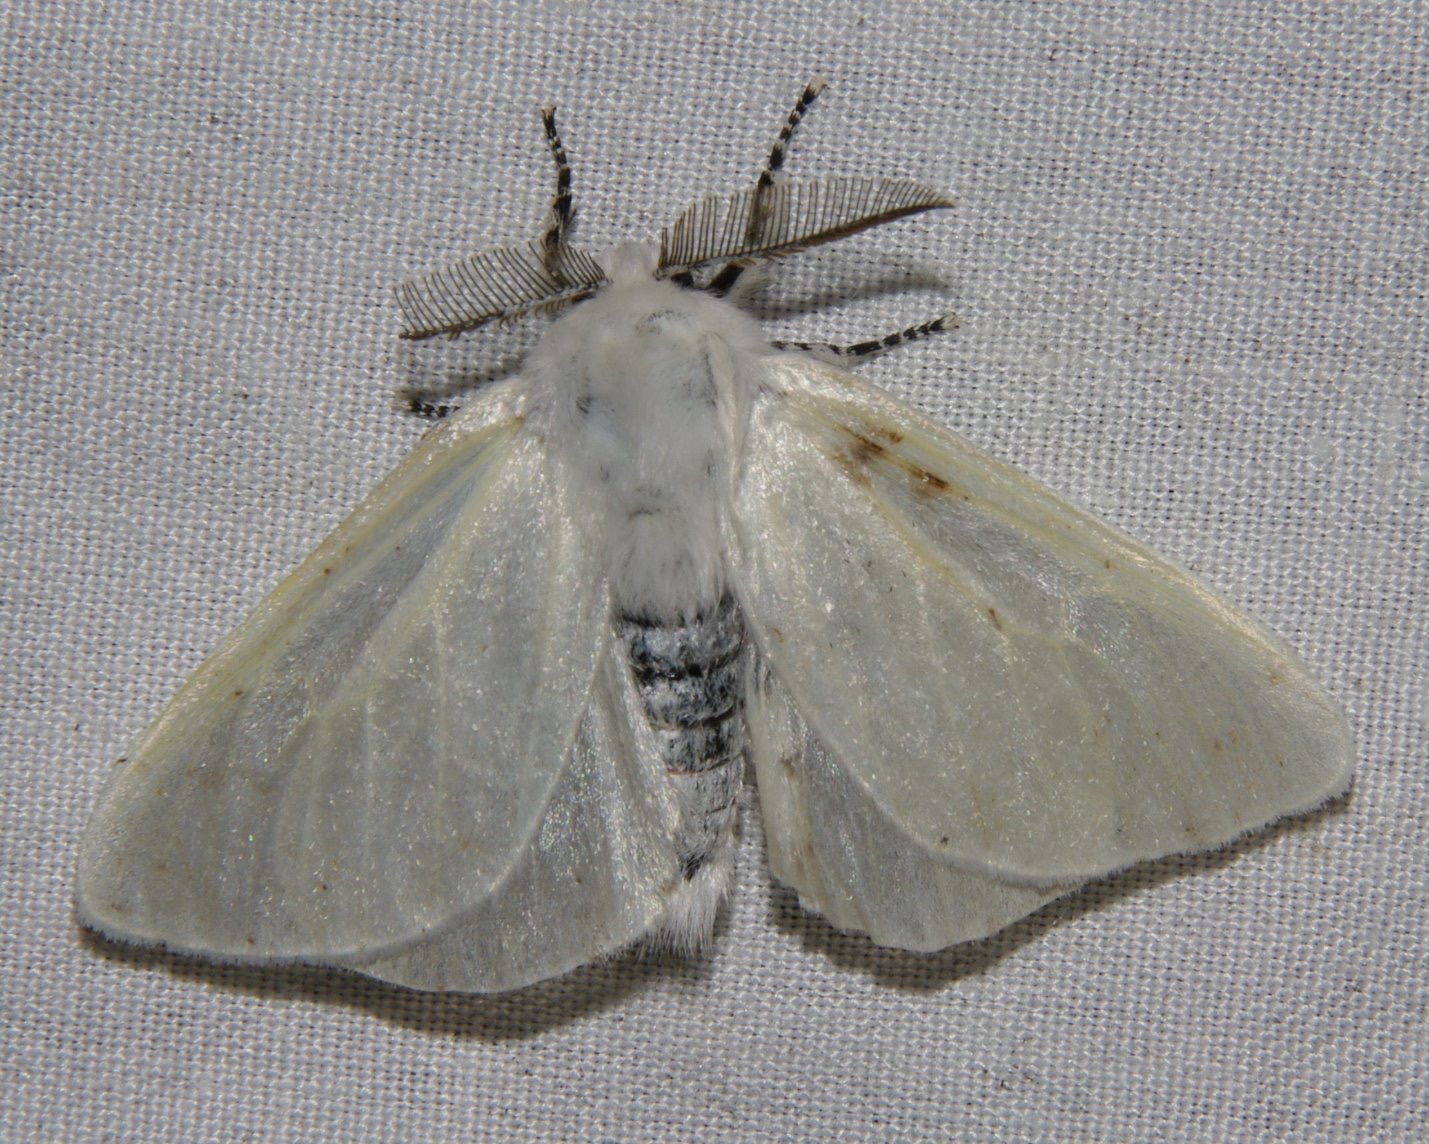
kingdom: Animalia
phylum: Arthropoda
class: Insecta
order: Lepidoptera
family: Erebidae
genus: Leucoma
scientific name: Leucoma salicis
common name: White satin moth
